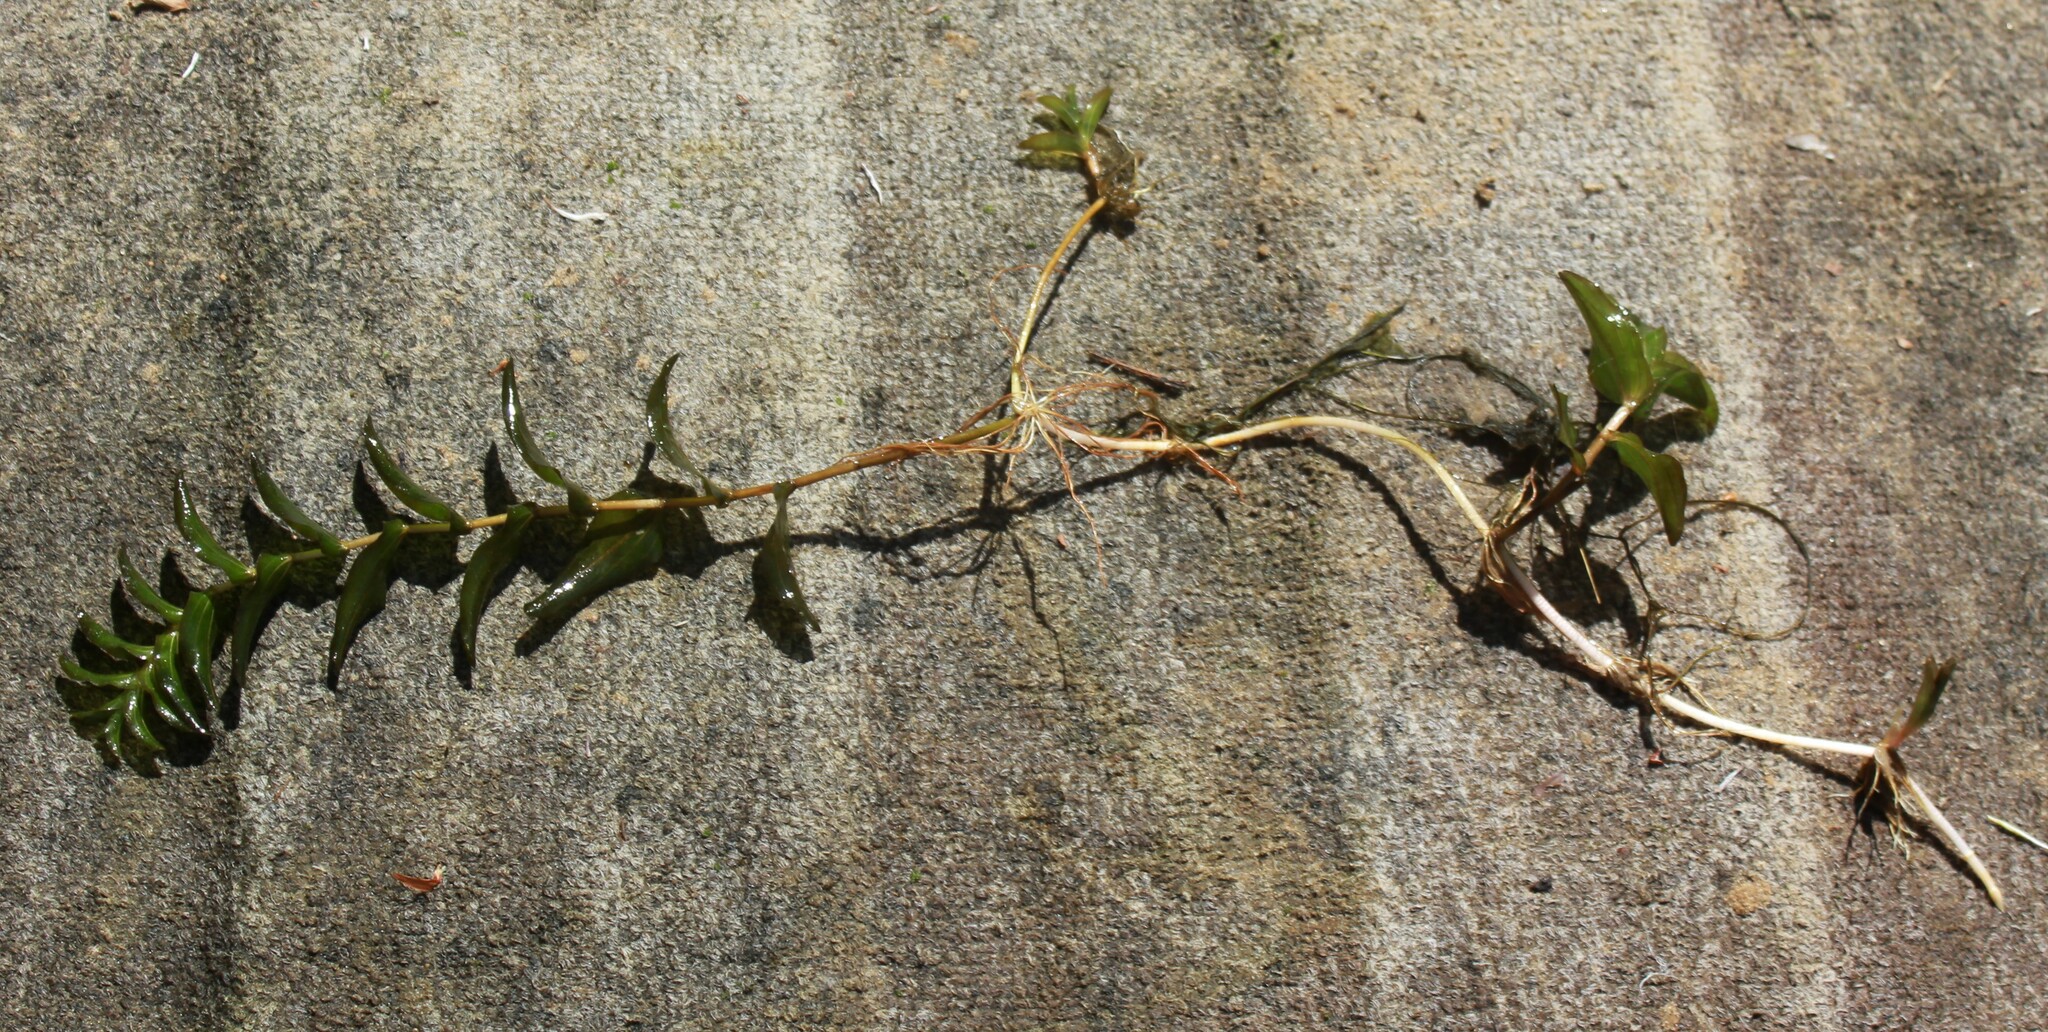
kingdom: Plantae
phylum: Tracheophyta
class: Liliopsida
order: Alismatales
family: Potamogetonaceae
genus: Potamogeton
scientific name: Potamogeton perfoliatus
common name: Perfoliate pondweed
